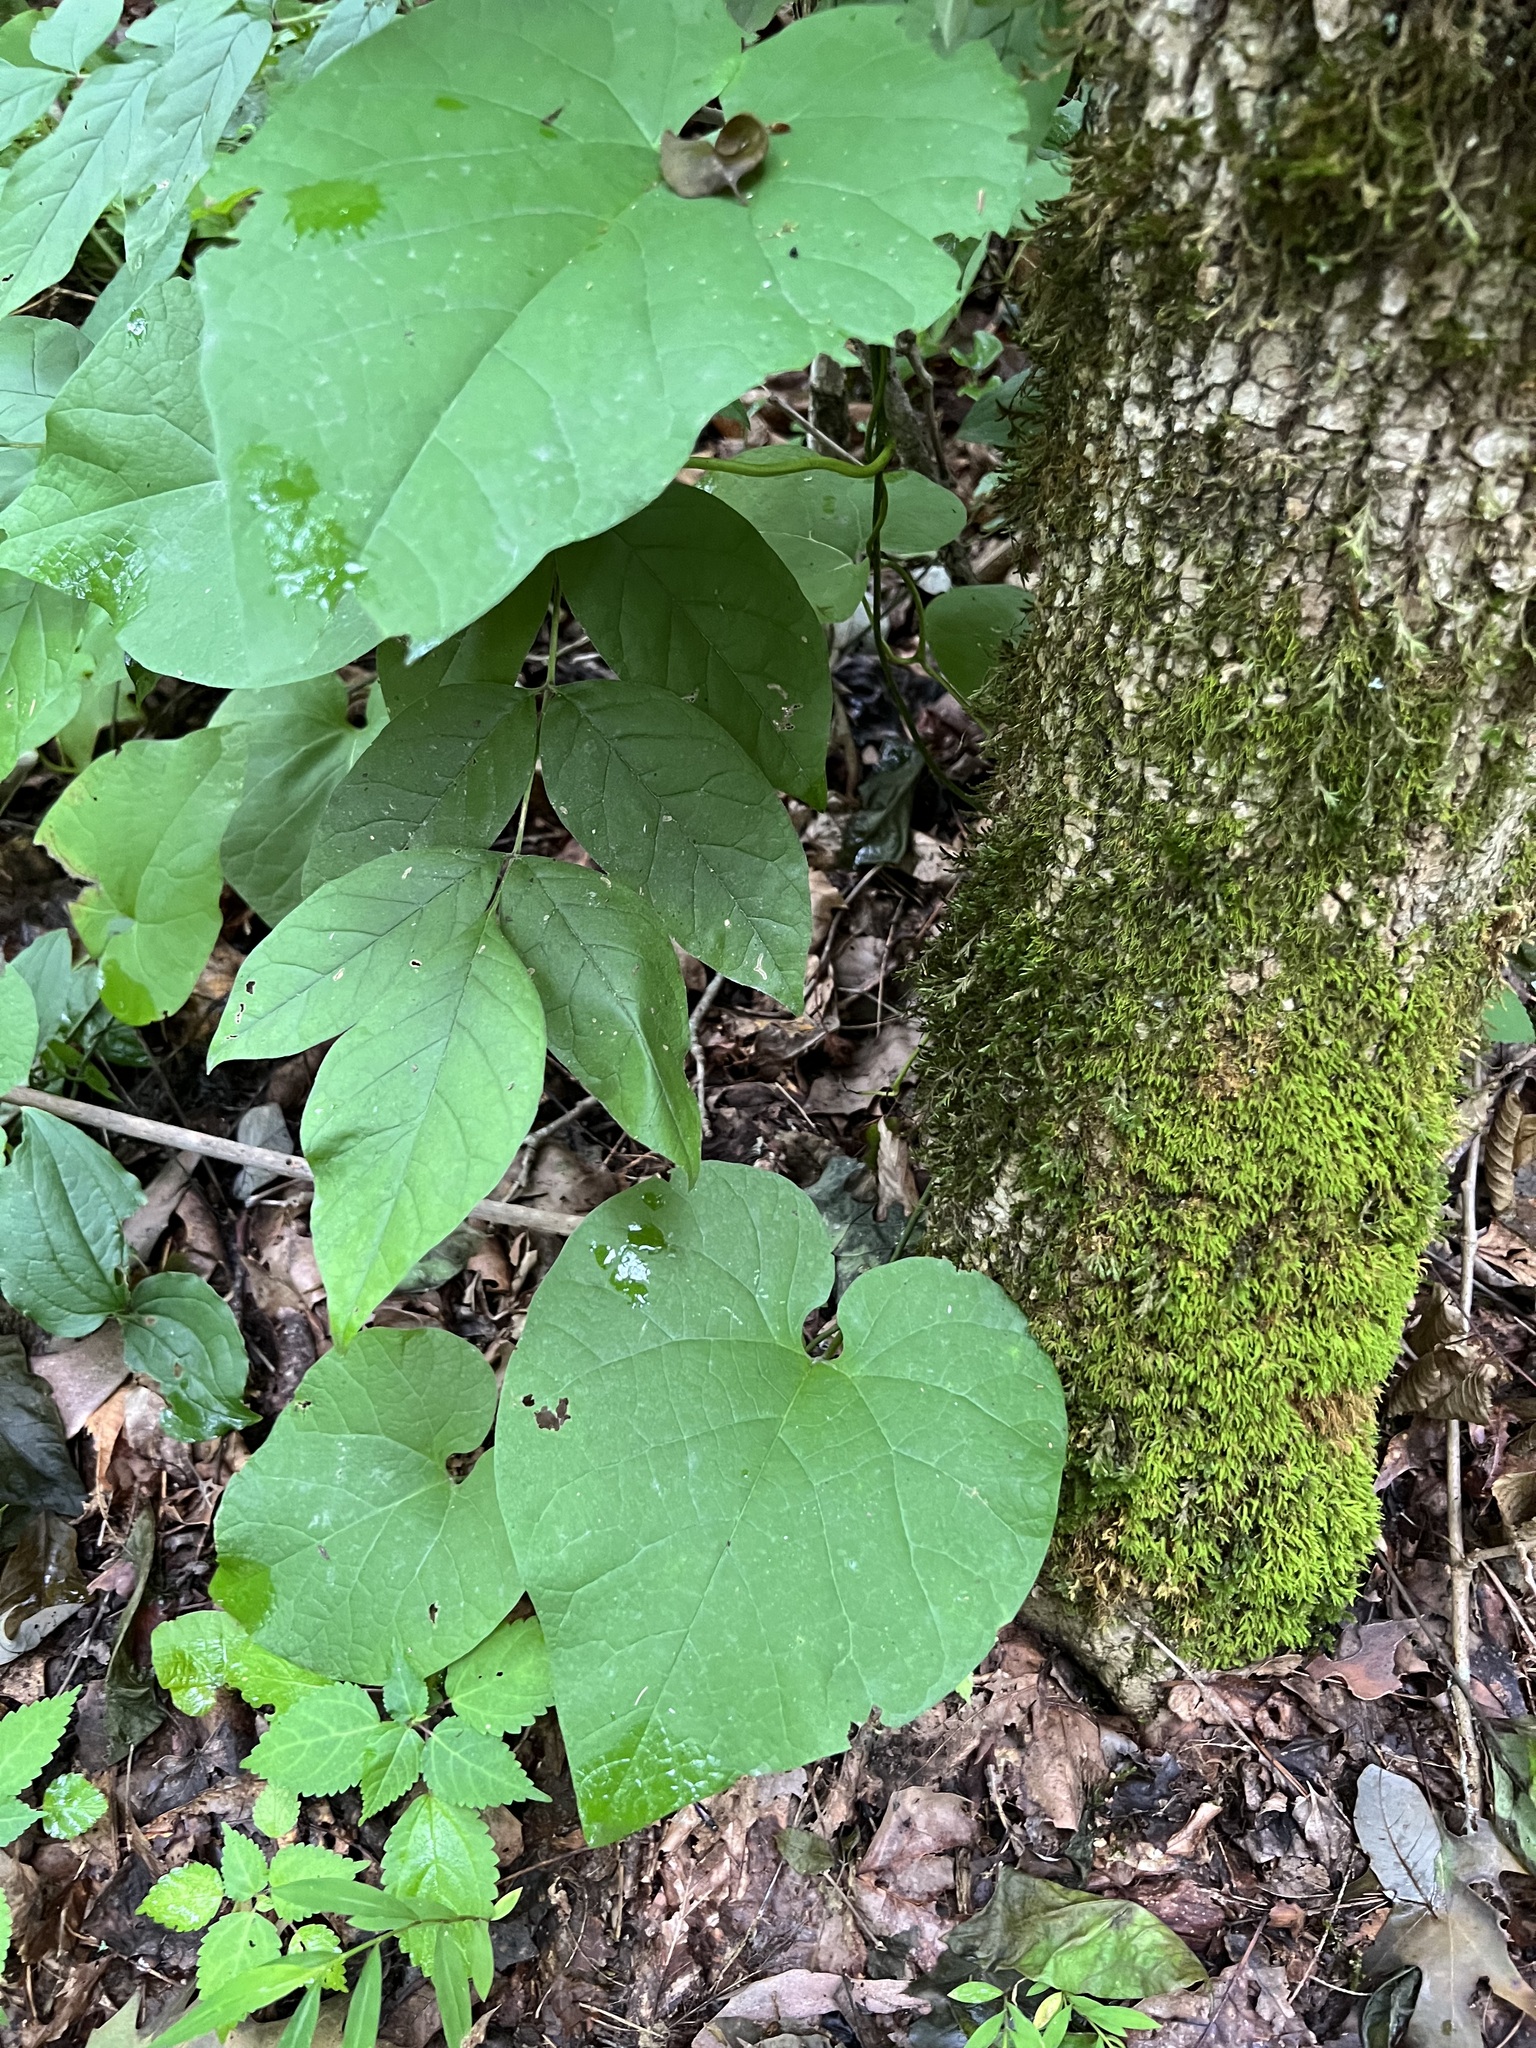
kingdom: Plantae
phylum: Tracheophyta
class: Magnoliopsida
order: Piperales
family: Aristolochiaceae
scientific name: Aristolochiaceae
